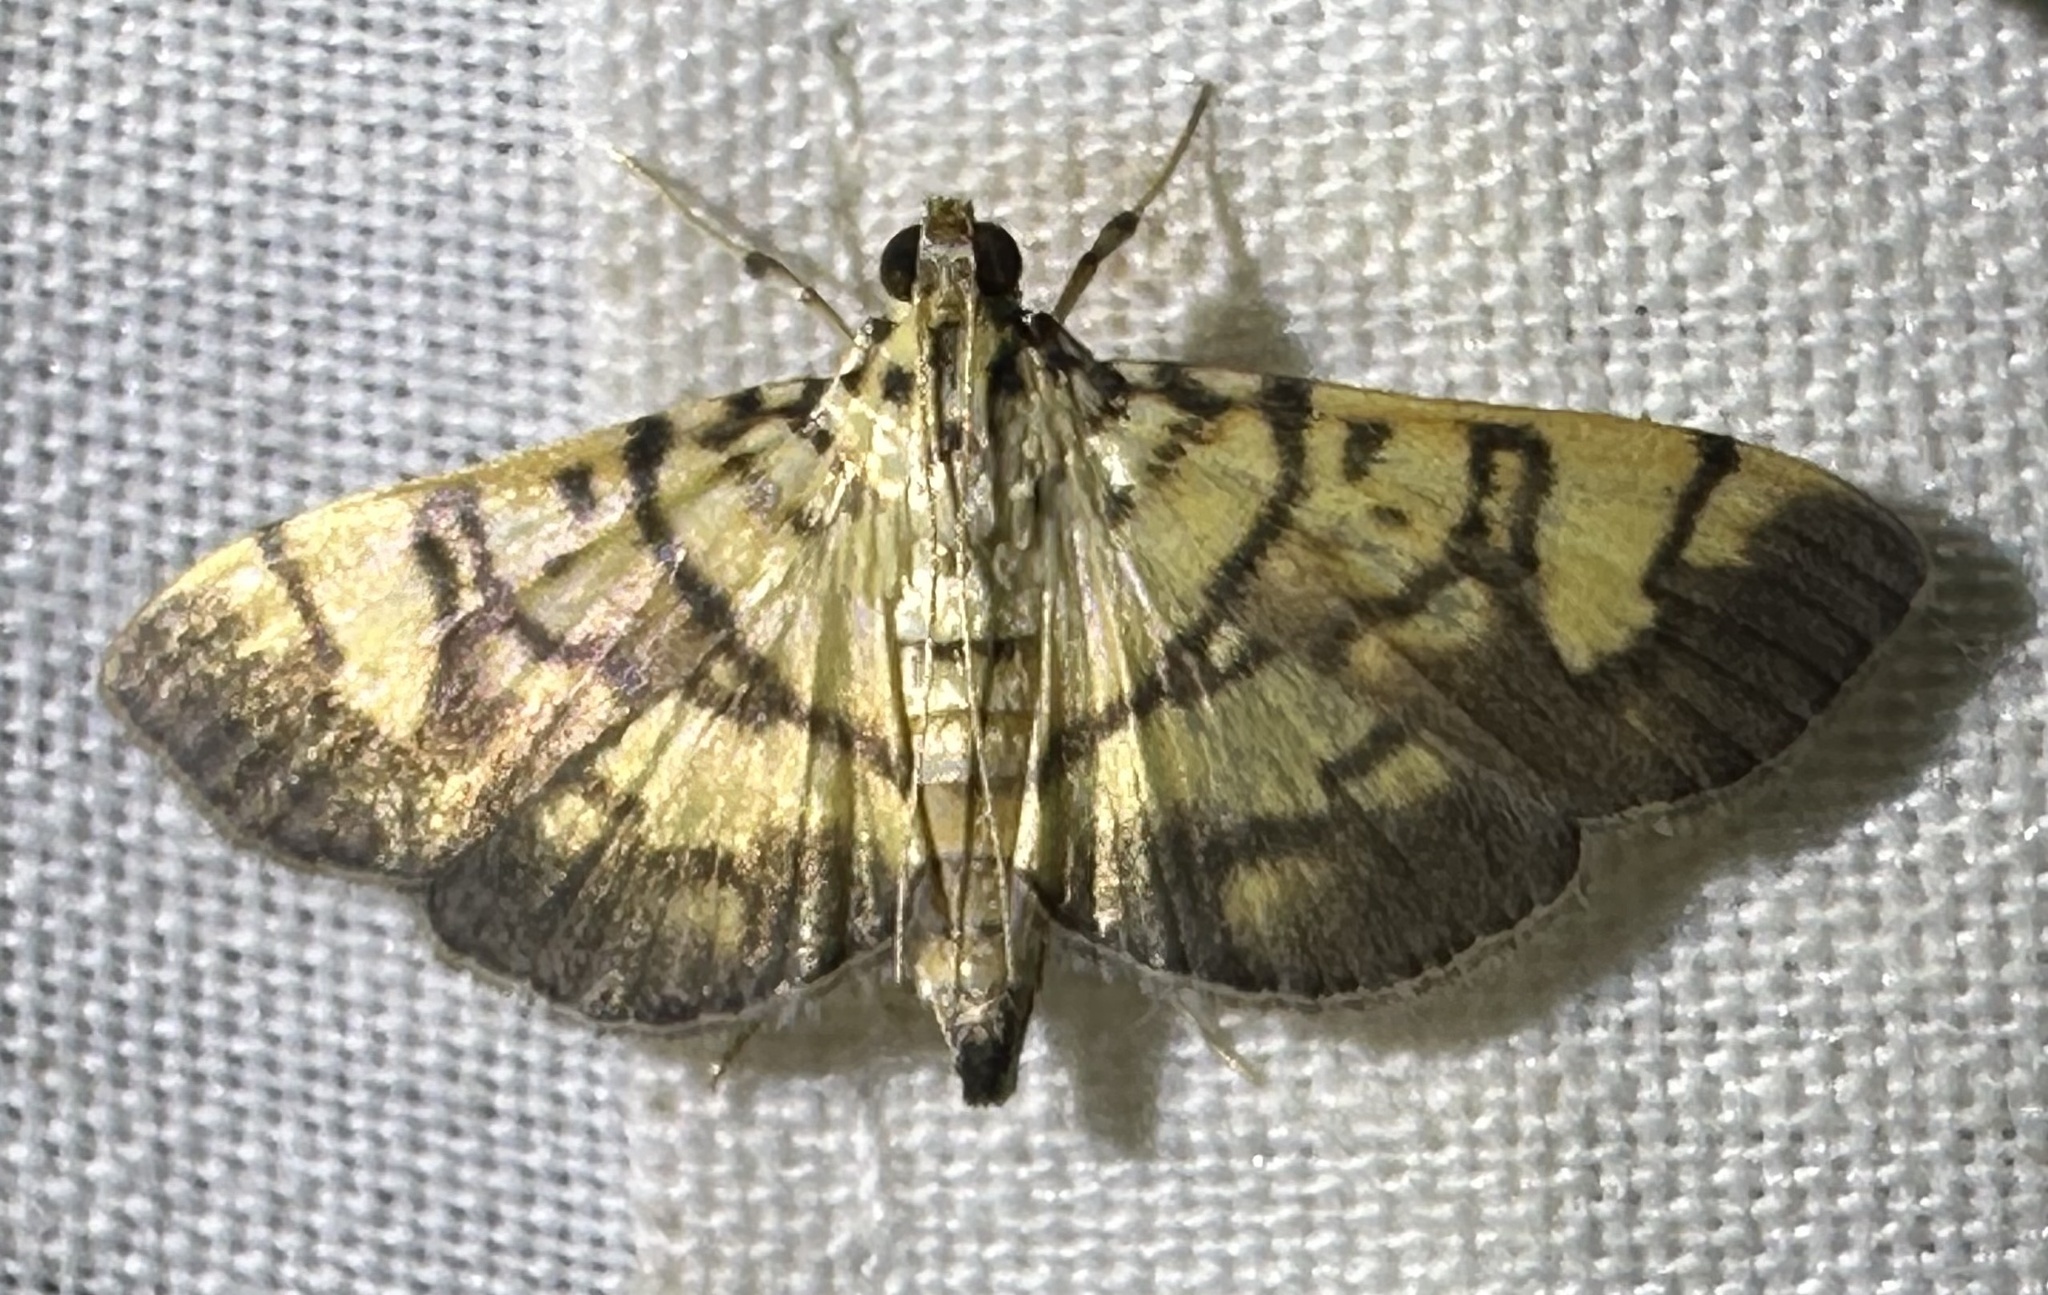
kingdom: Animalia
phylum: Arthropoda
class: Insecta
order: Lepidoptera
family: Crambidae
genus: Pardomima
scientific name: Pardomima distortana
